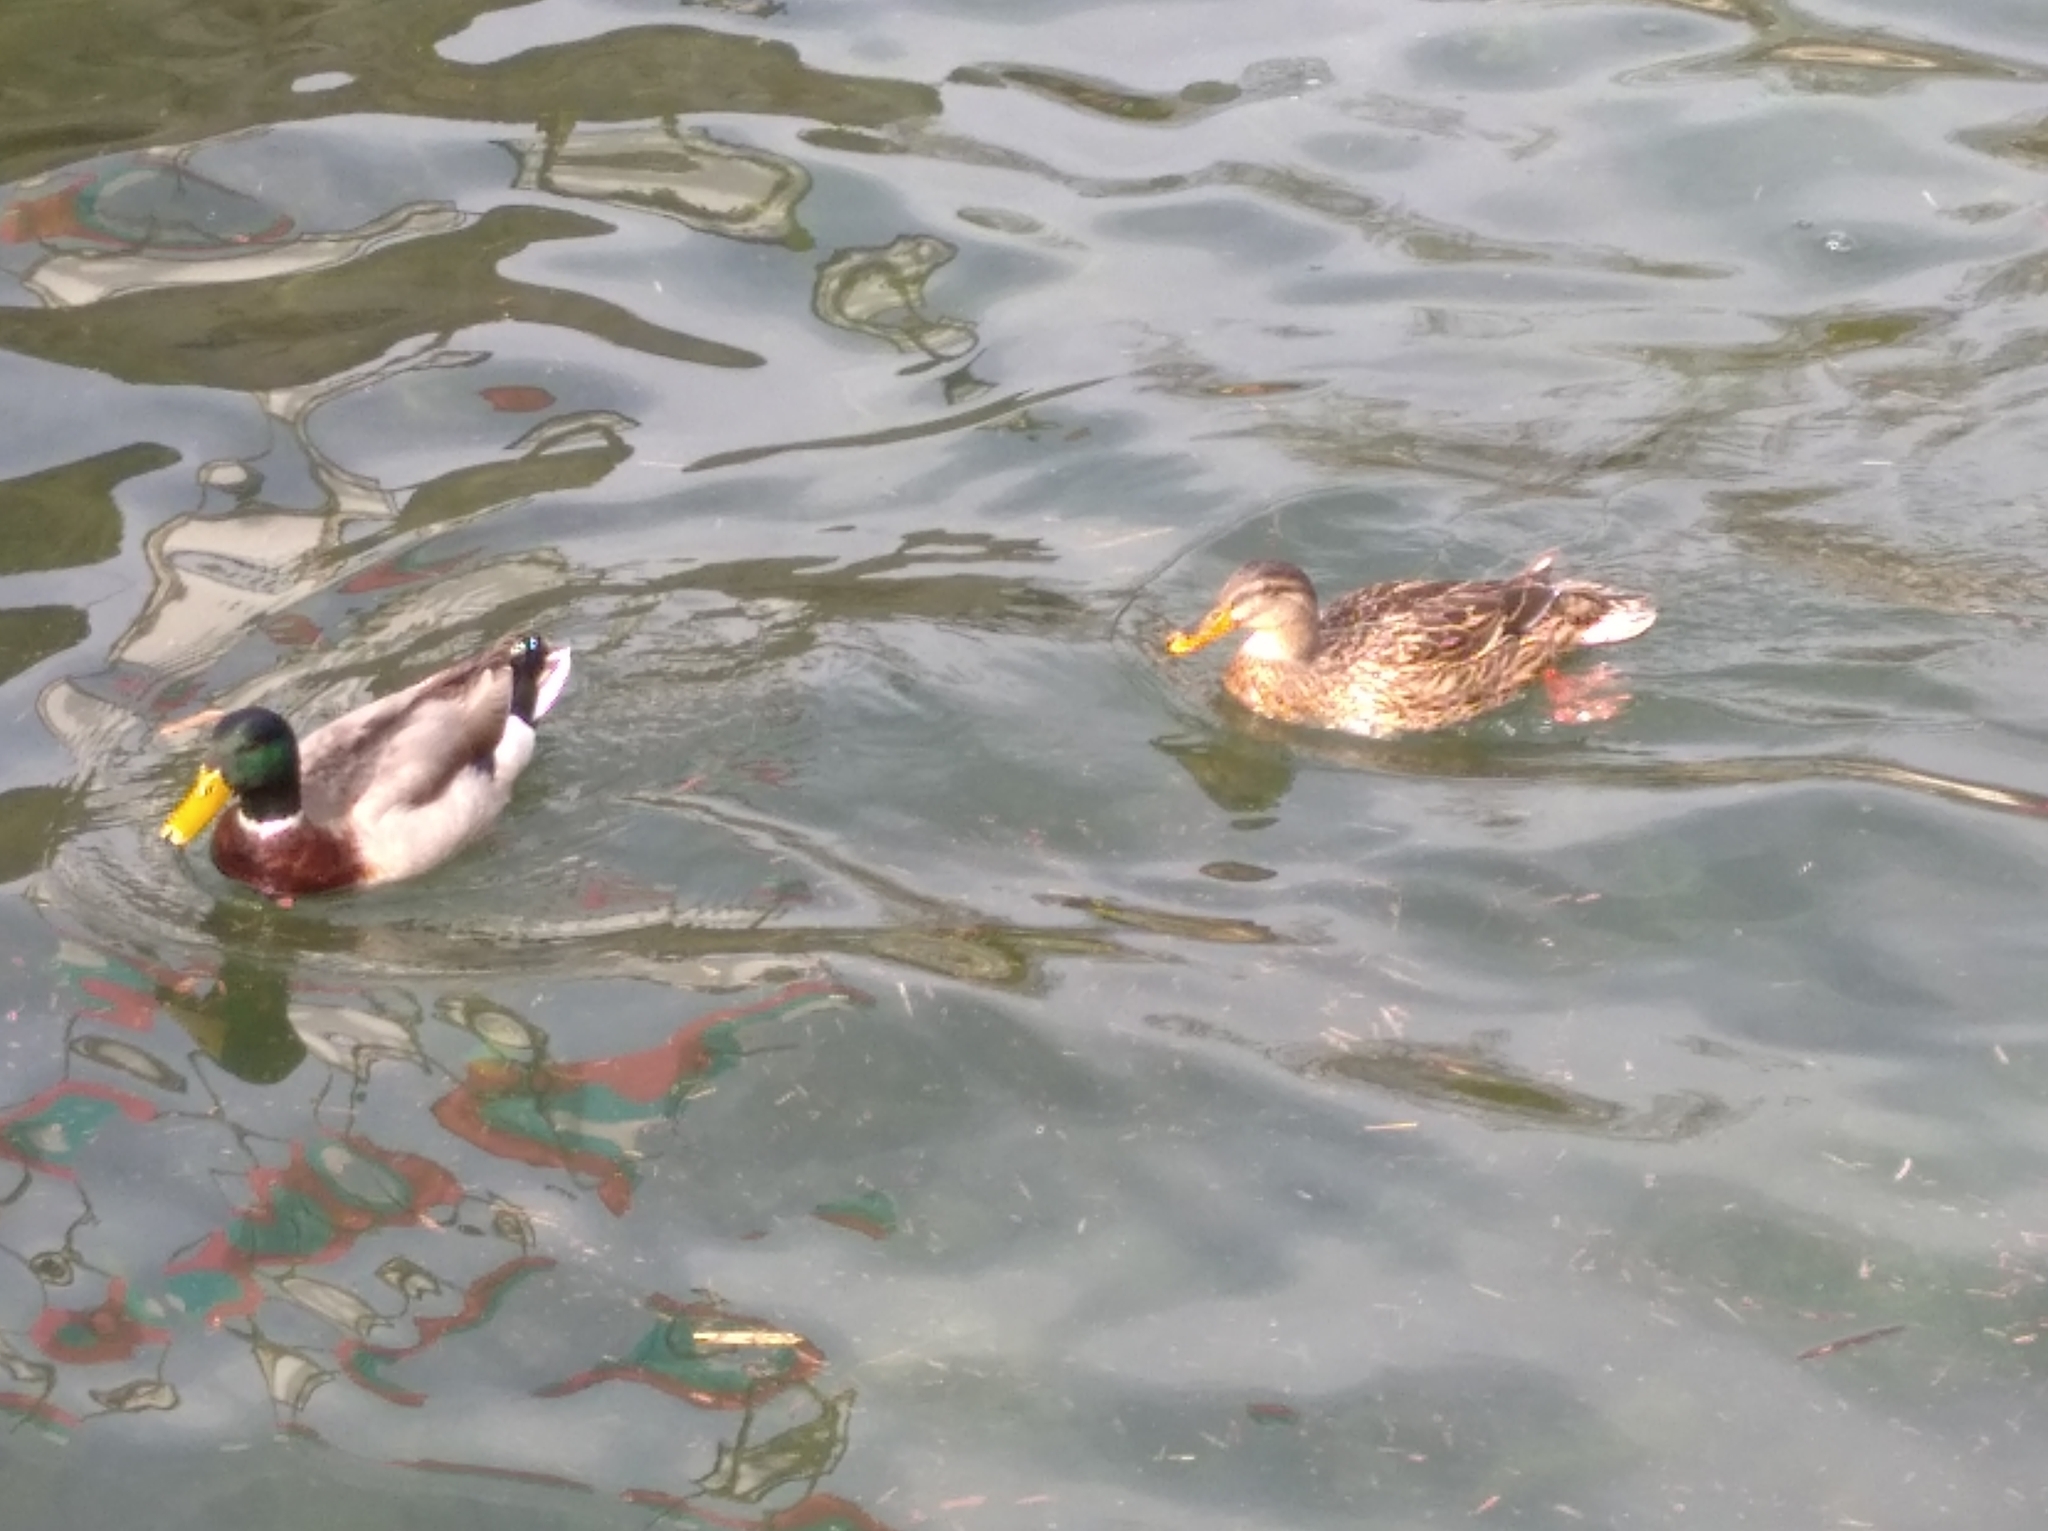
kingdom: Animalia
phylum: Chordata
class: Aves
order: Anseriformes
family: Anatidae
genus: Anas
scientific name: Anas platyrhynchos
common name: Mallard
